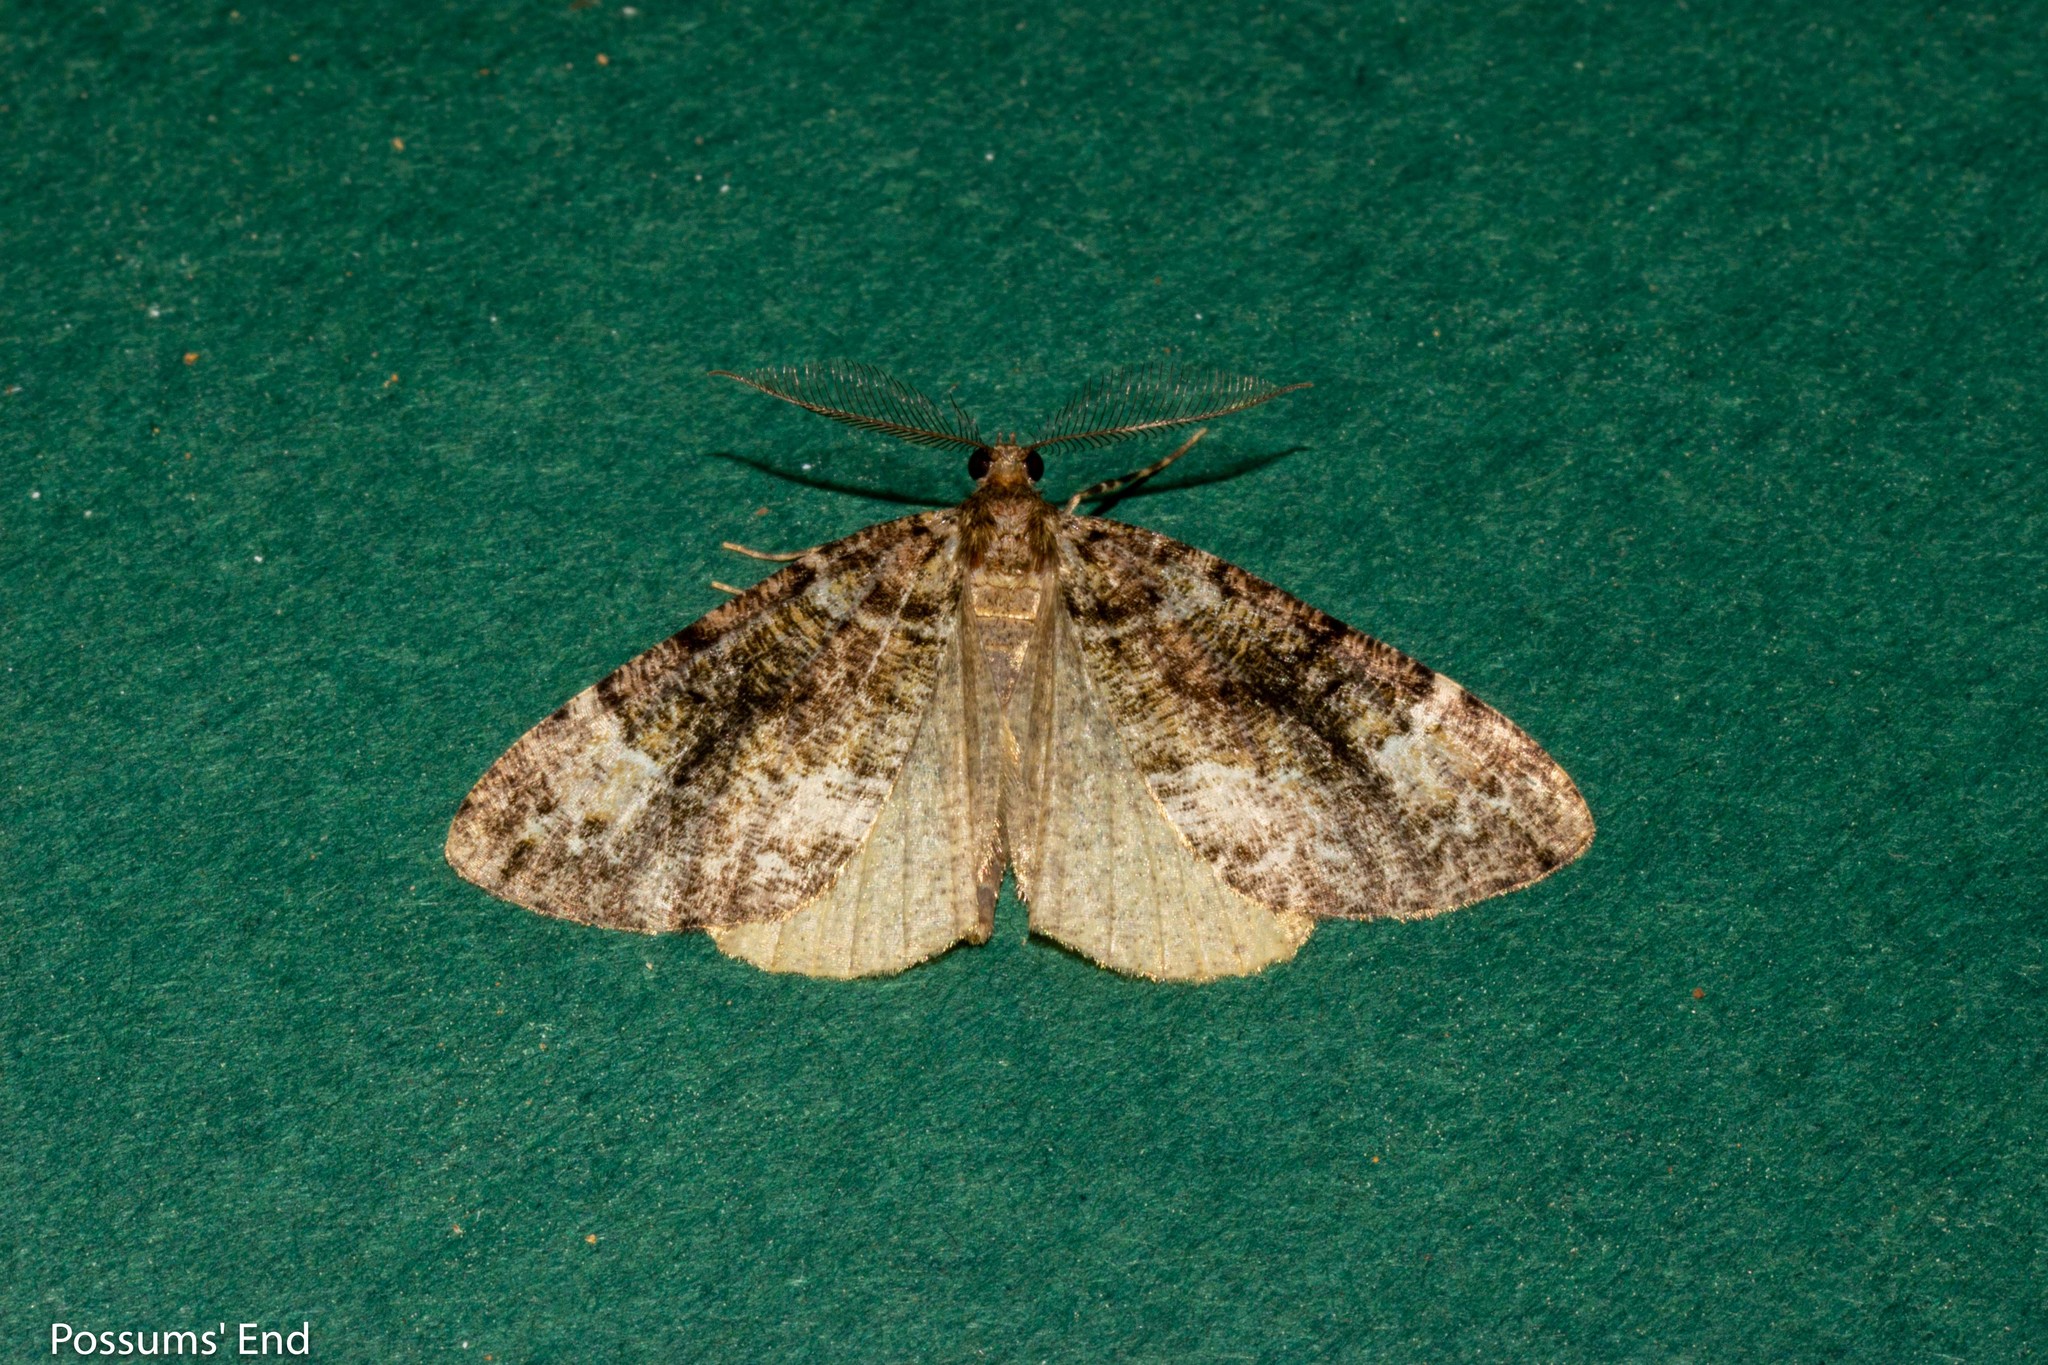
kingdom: Animalia
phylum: Arthropoda
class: Insecta
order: Lepidoptera
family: Geometridae
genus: Pseudocoremia
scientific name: Pseudocoremia productata
